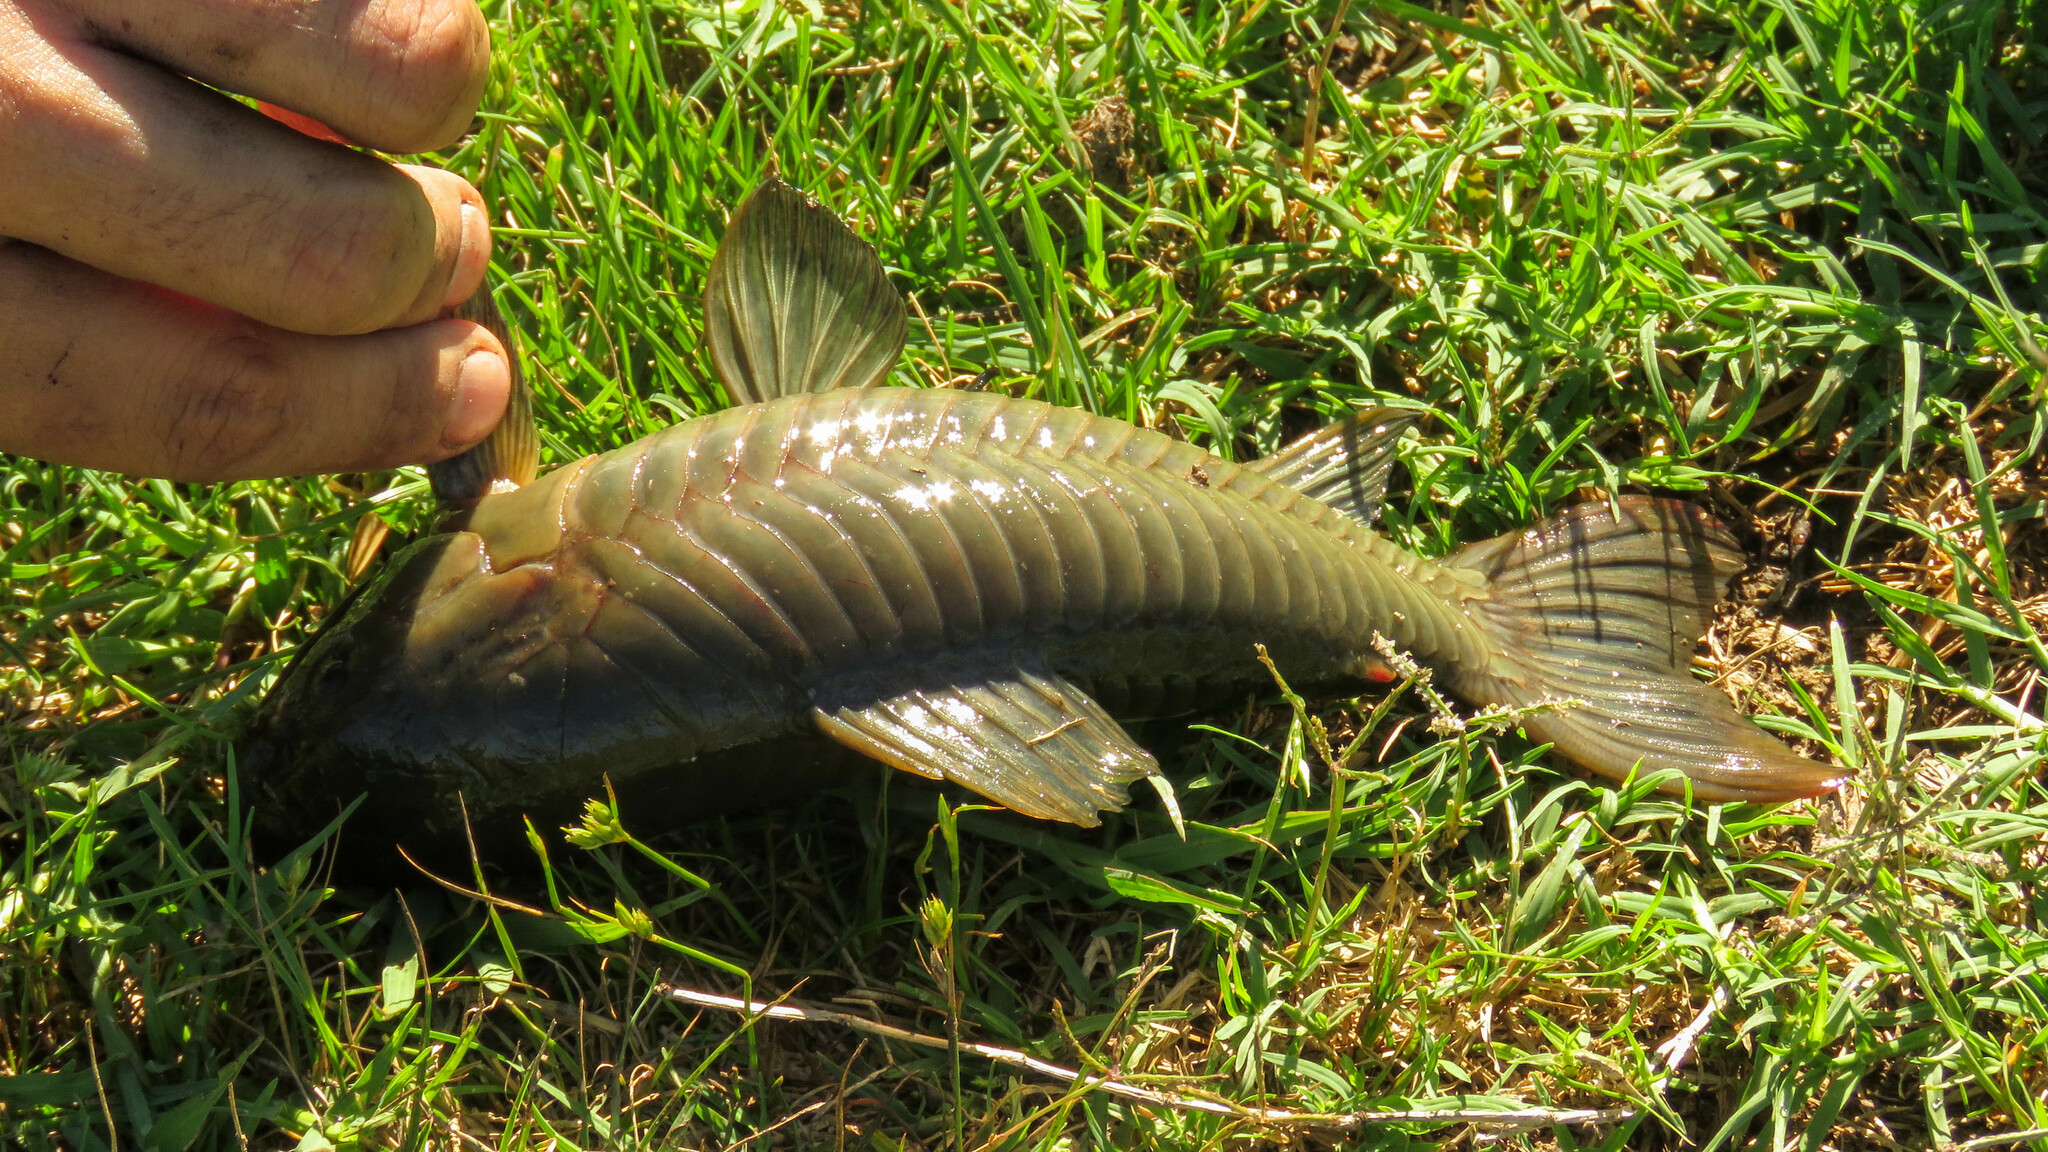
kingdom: Animalia
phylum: Chordata
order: Siluriformes
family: Callichthyidae
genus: Hoplosternum
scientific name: Hoplosternum littorale
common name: Brown hoplo
